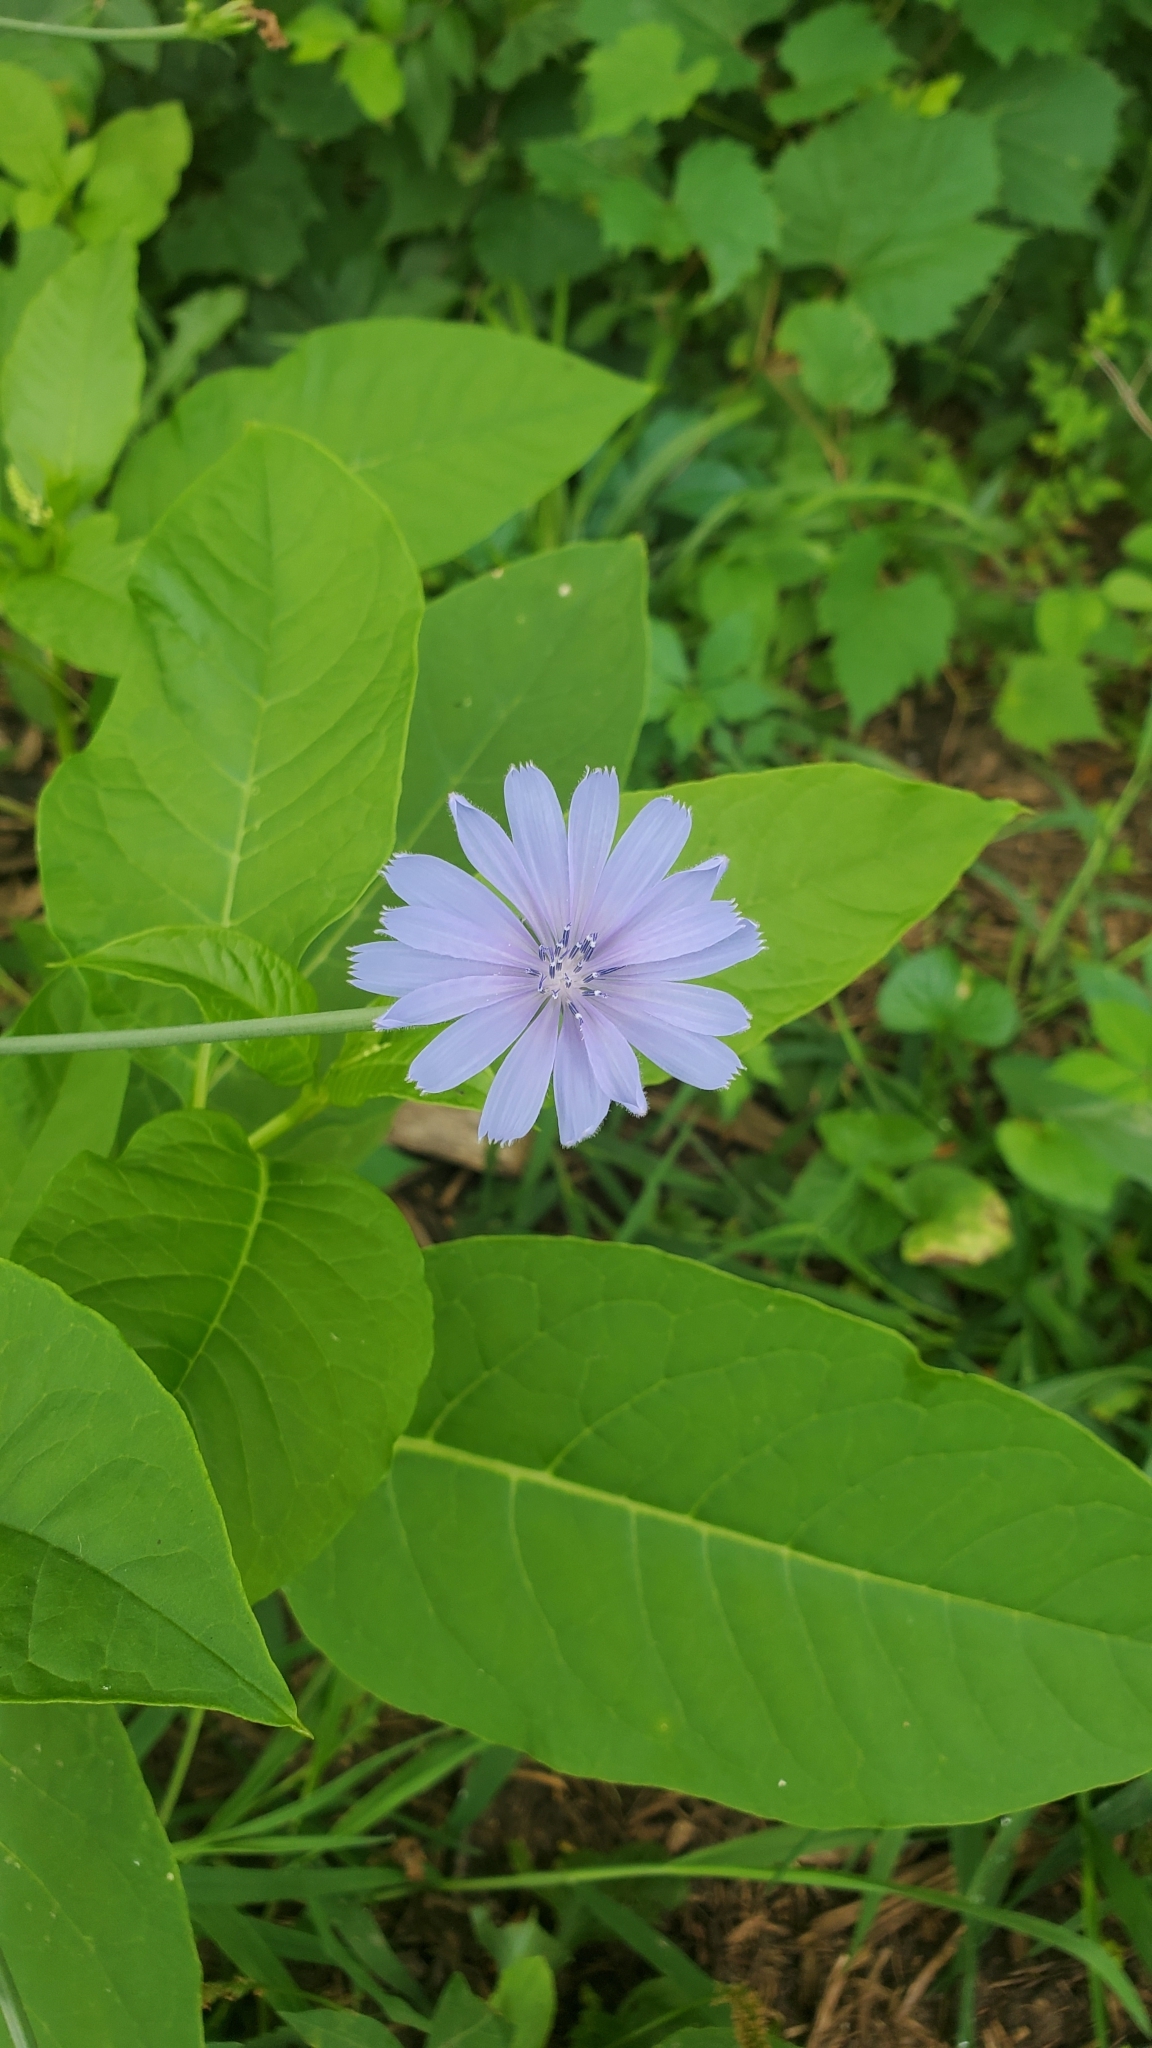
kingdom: Plantae
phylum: Tracheophyta
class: Magnoliopsida
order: Asterales
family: Asteraceae
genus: Cichorium
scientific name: Cichorium intybus
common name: Chicory
